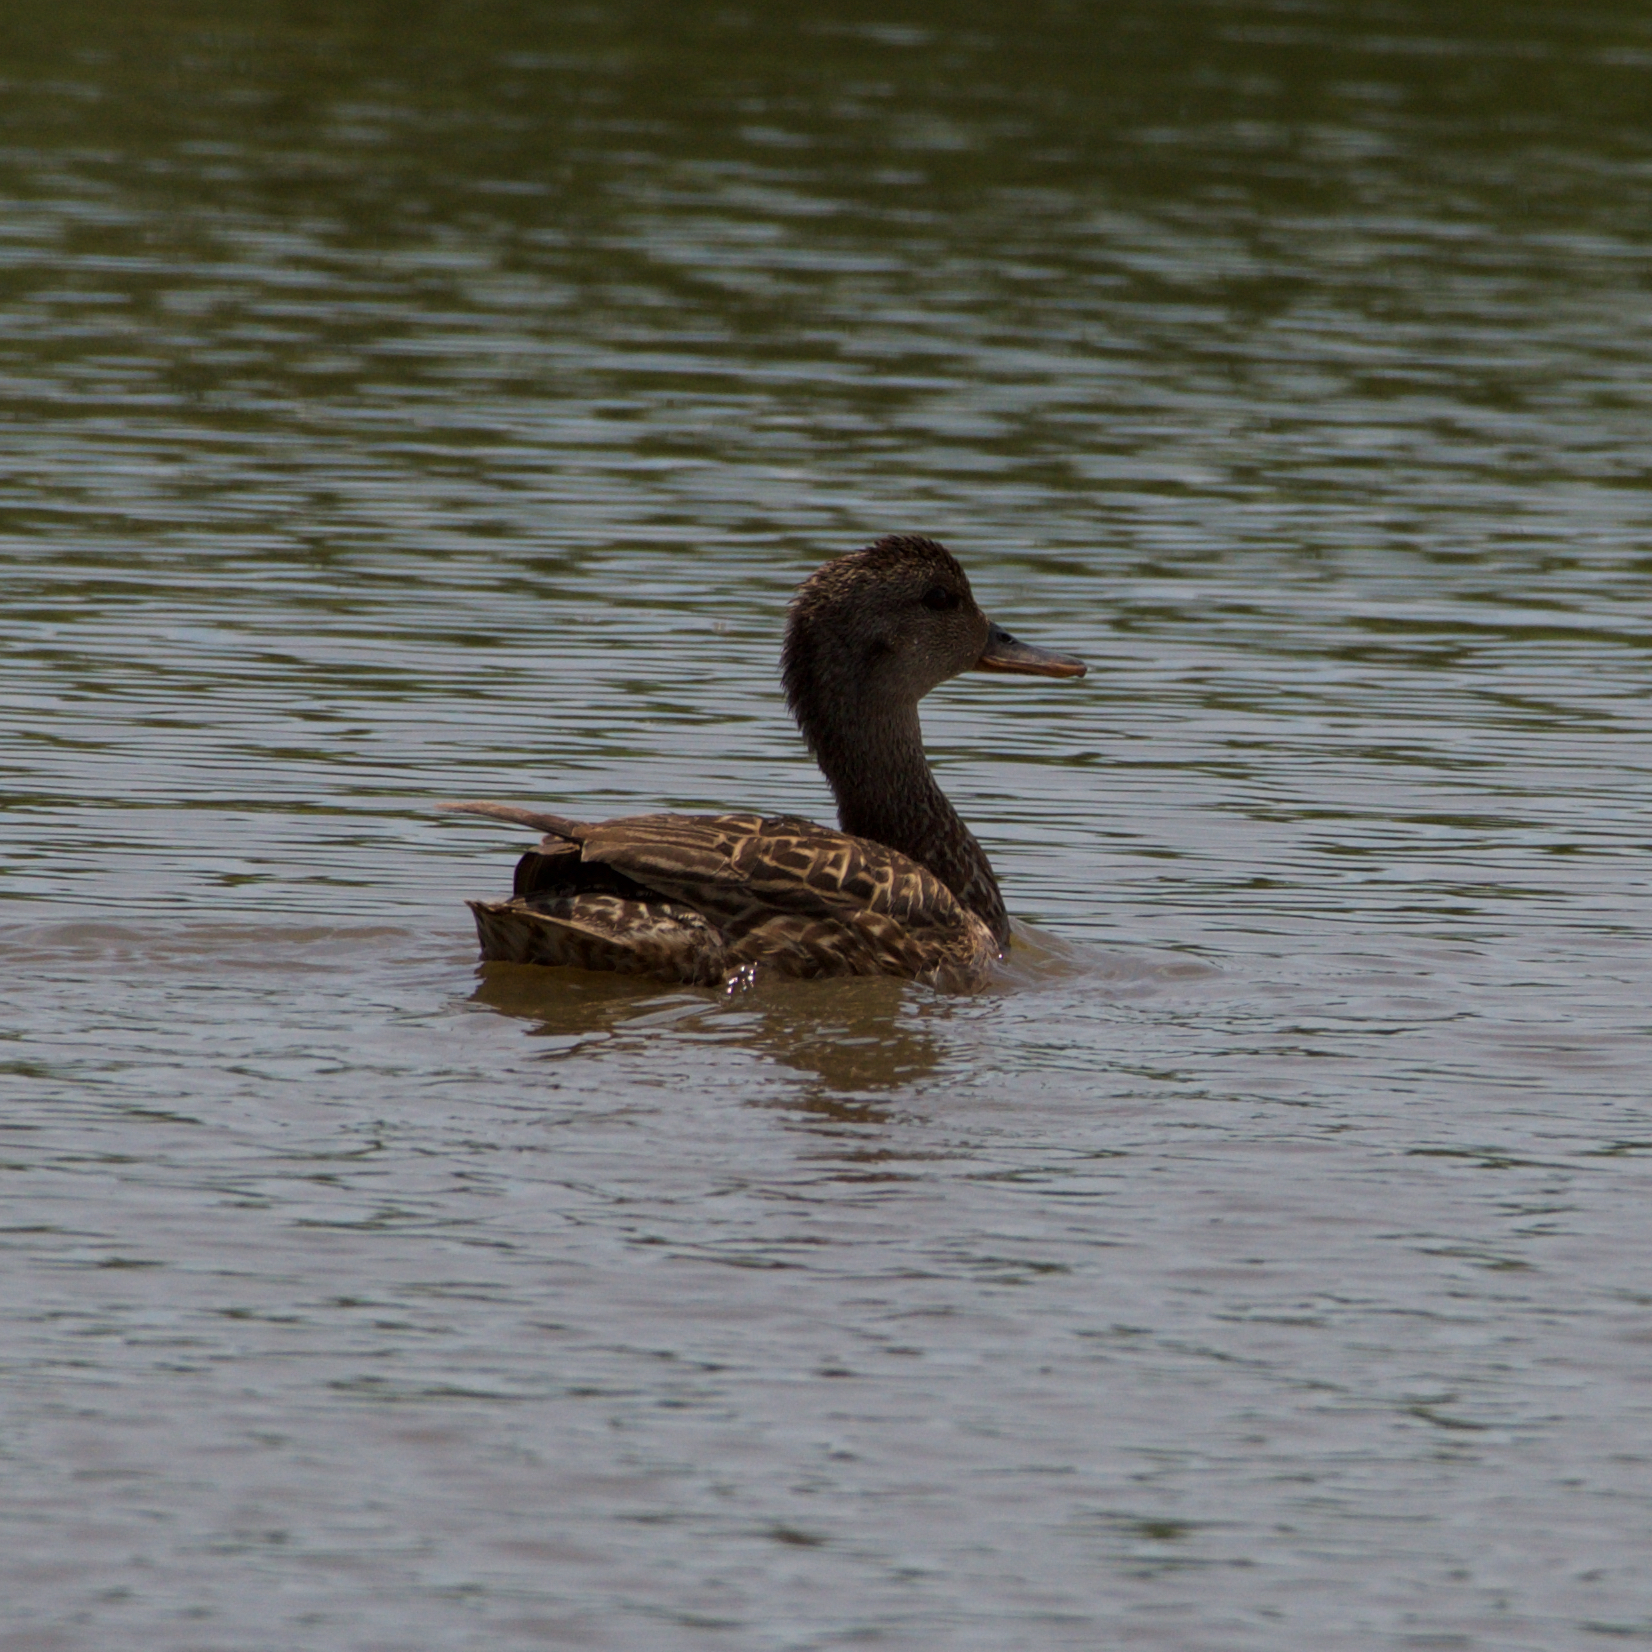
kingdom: Animalia
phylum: Chordata
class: Aves
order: Anseriformes
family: Anatidae
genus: Mareca
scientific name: Mareca strepera
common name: Gadwall
